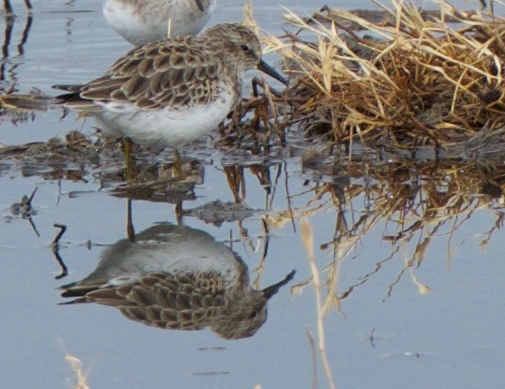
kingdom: Animalia
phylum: Chordata
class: Aves
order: Charadriiformes
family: Scolopacidae
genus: Calidris
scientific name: Calidris minutilla
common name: Least sandpiper
